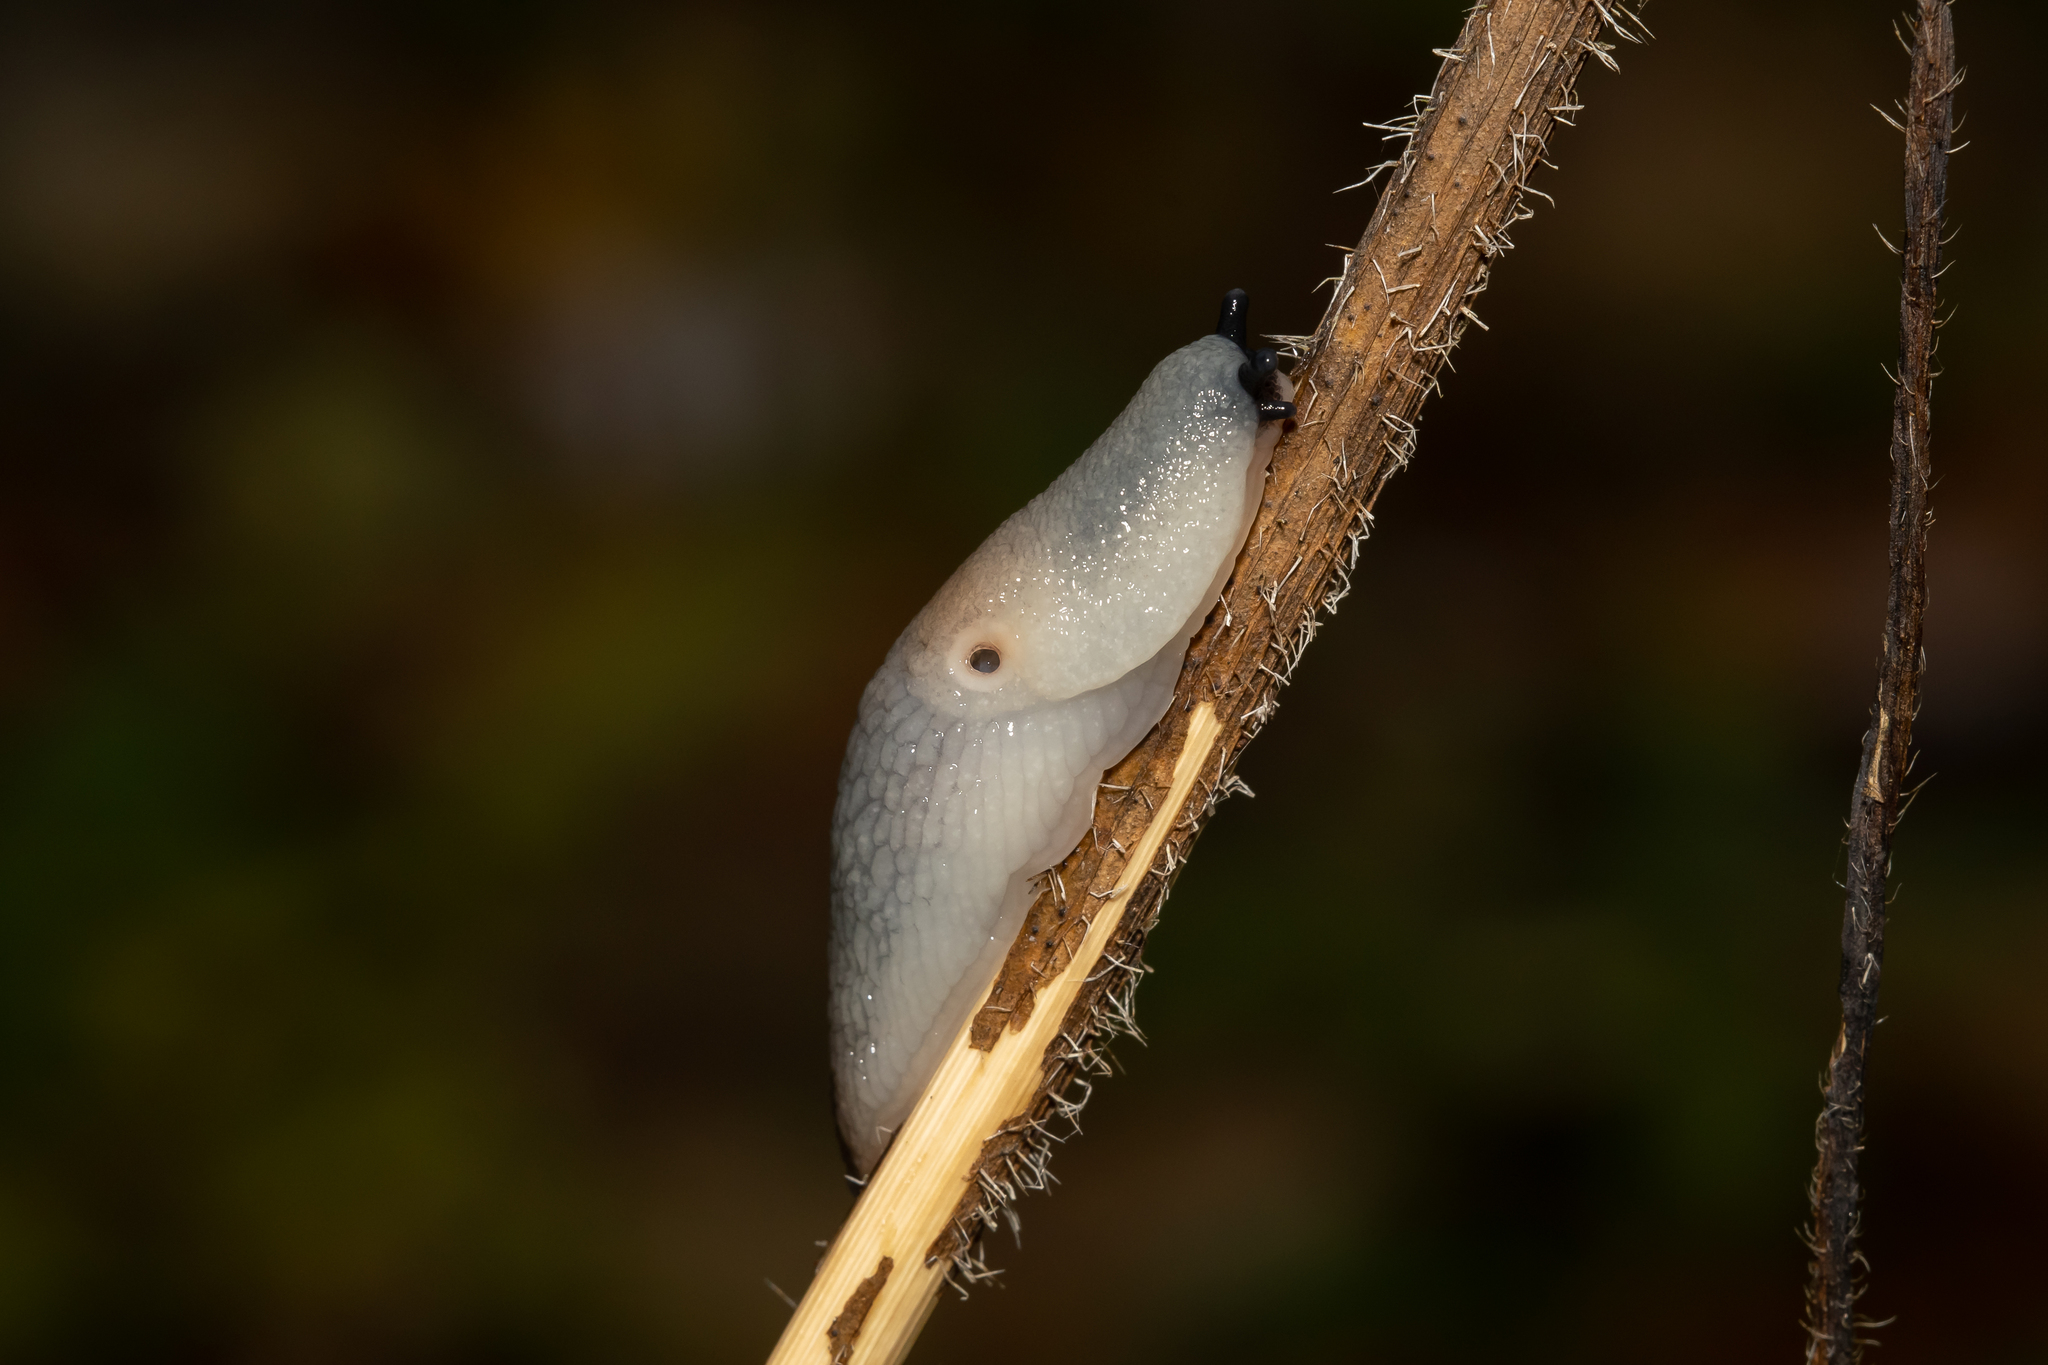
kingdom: Animalia
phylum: Mollusca
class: Gastropoda
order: Stylommatophora
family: Agriolimacidae
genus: Krynickillus
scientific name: Krynickillus melanocephalus
